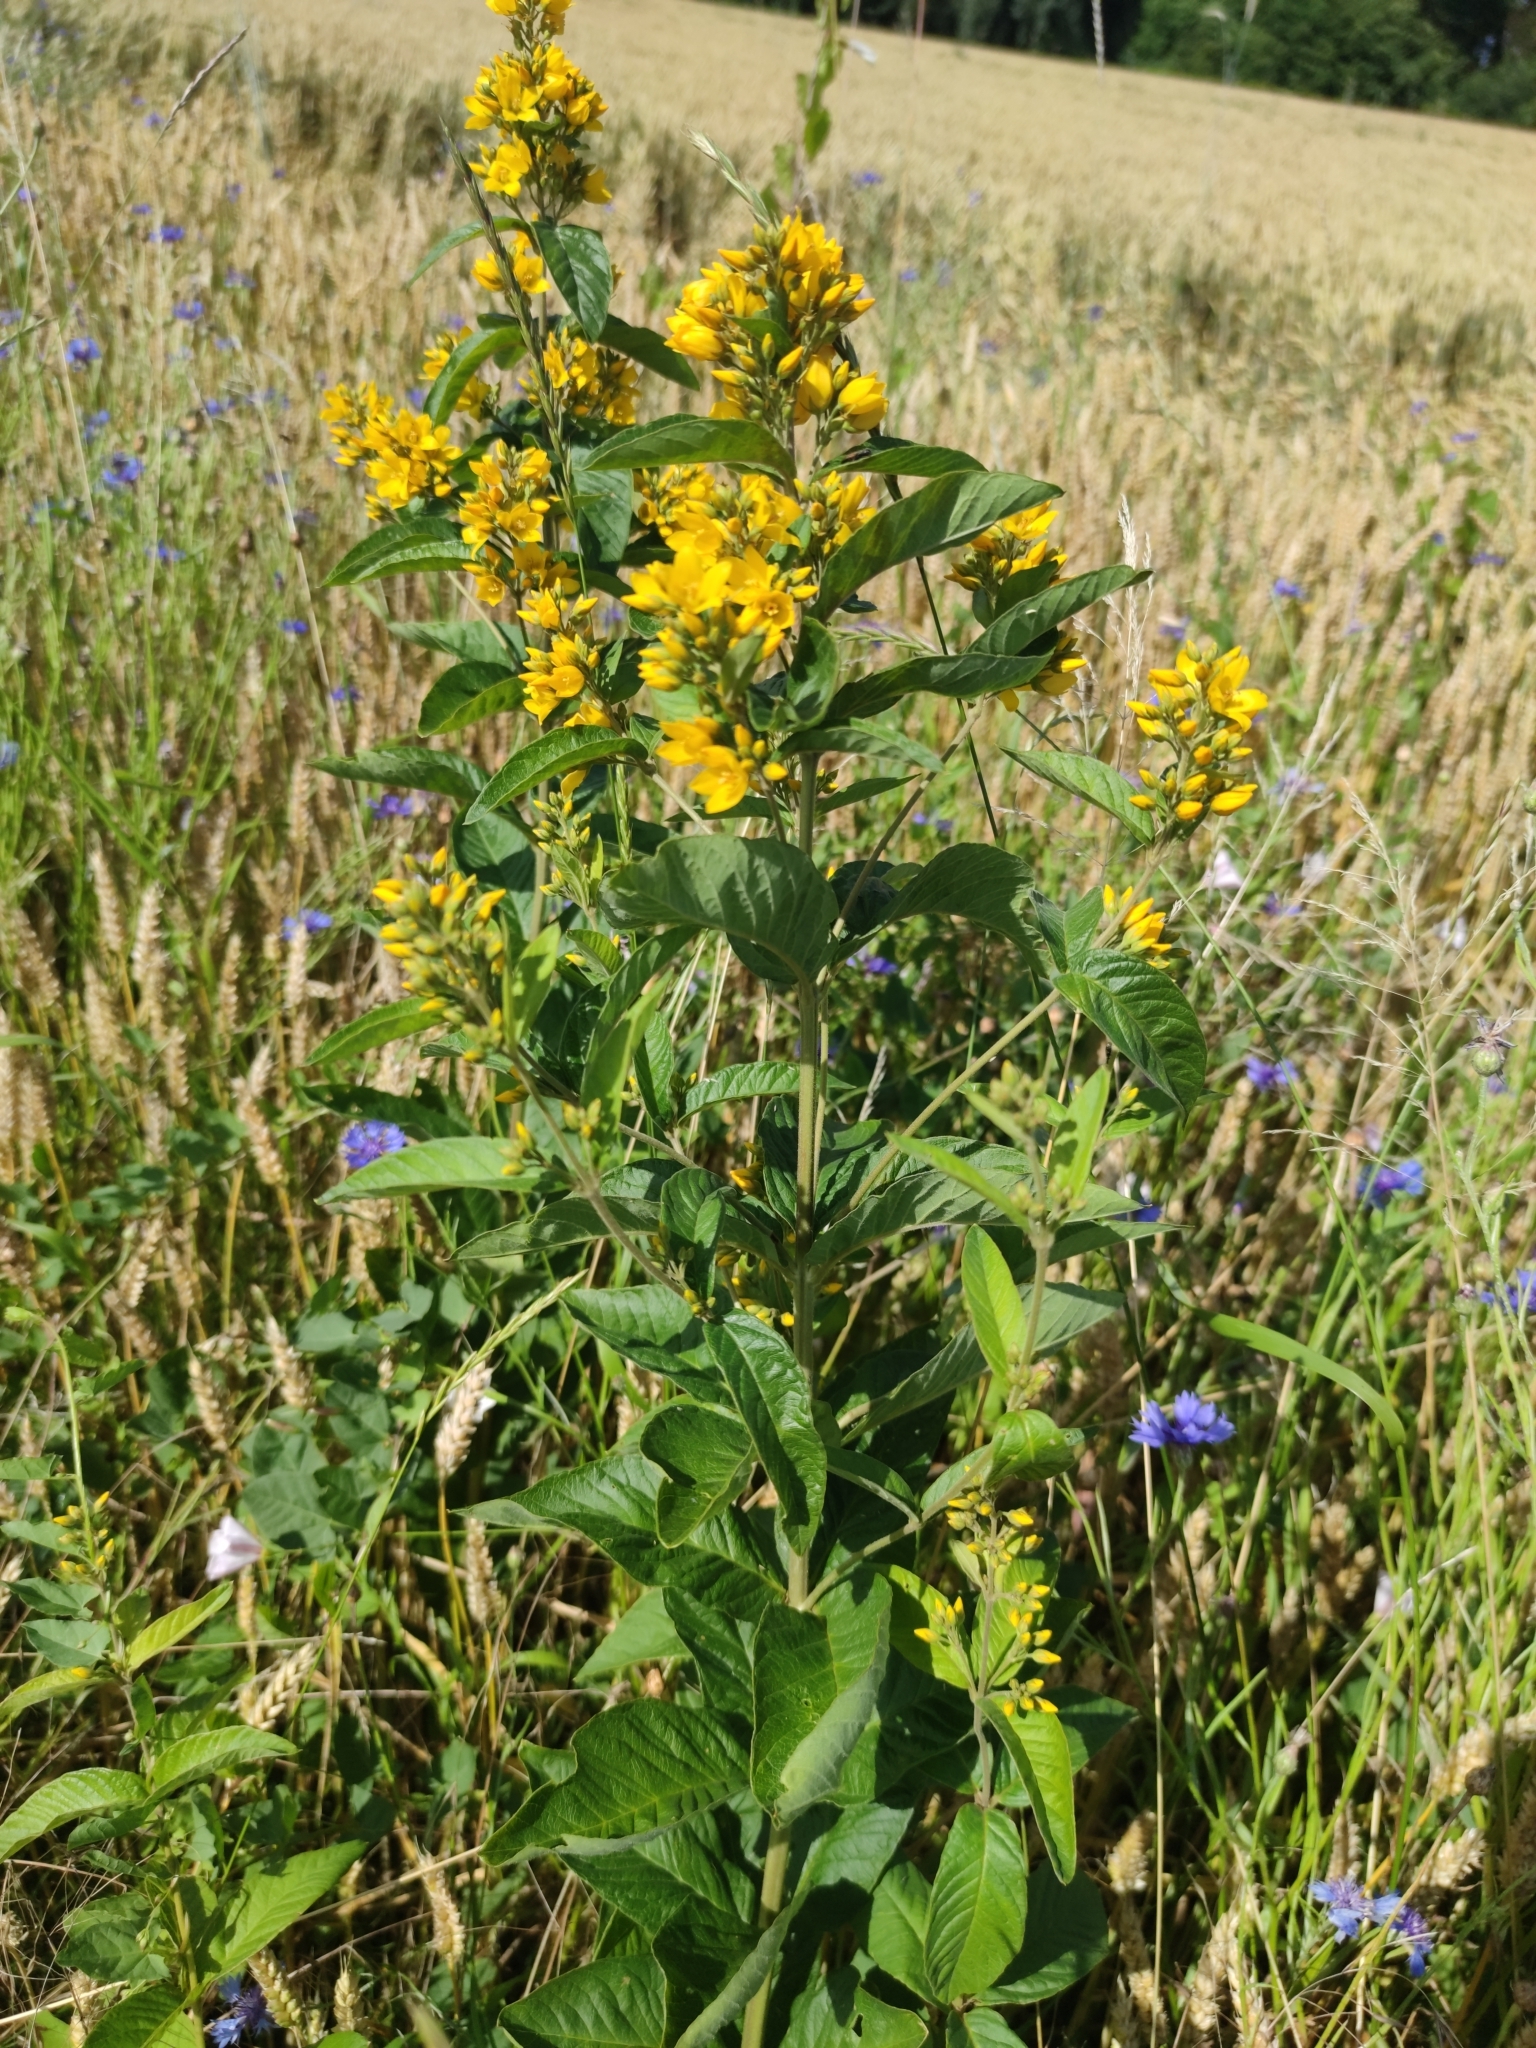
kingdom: Plantae
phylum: Tracheophyta
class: Magnoliopsida
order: Ericales
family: Primulaceae
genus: Lysimachia
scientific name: Lysimachia vulgaris
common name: Yellow loosestrife
